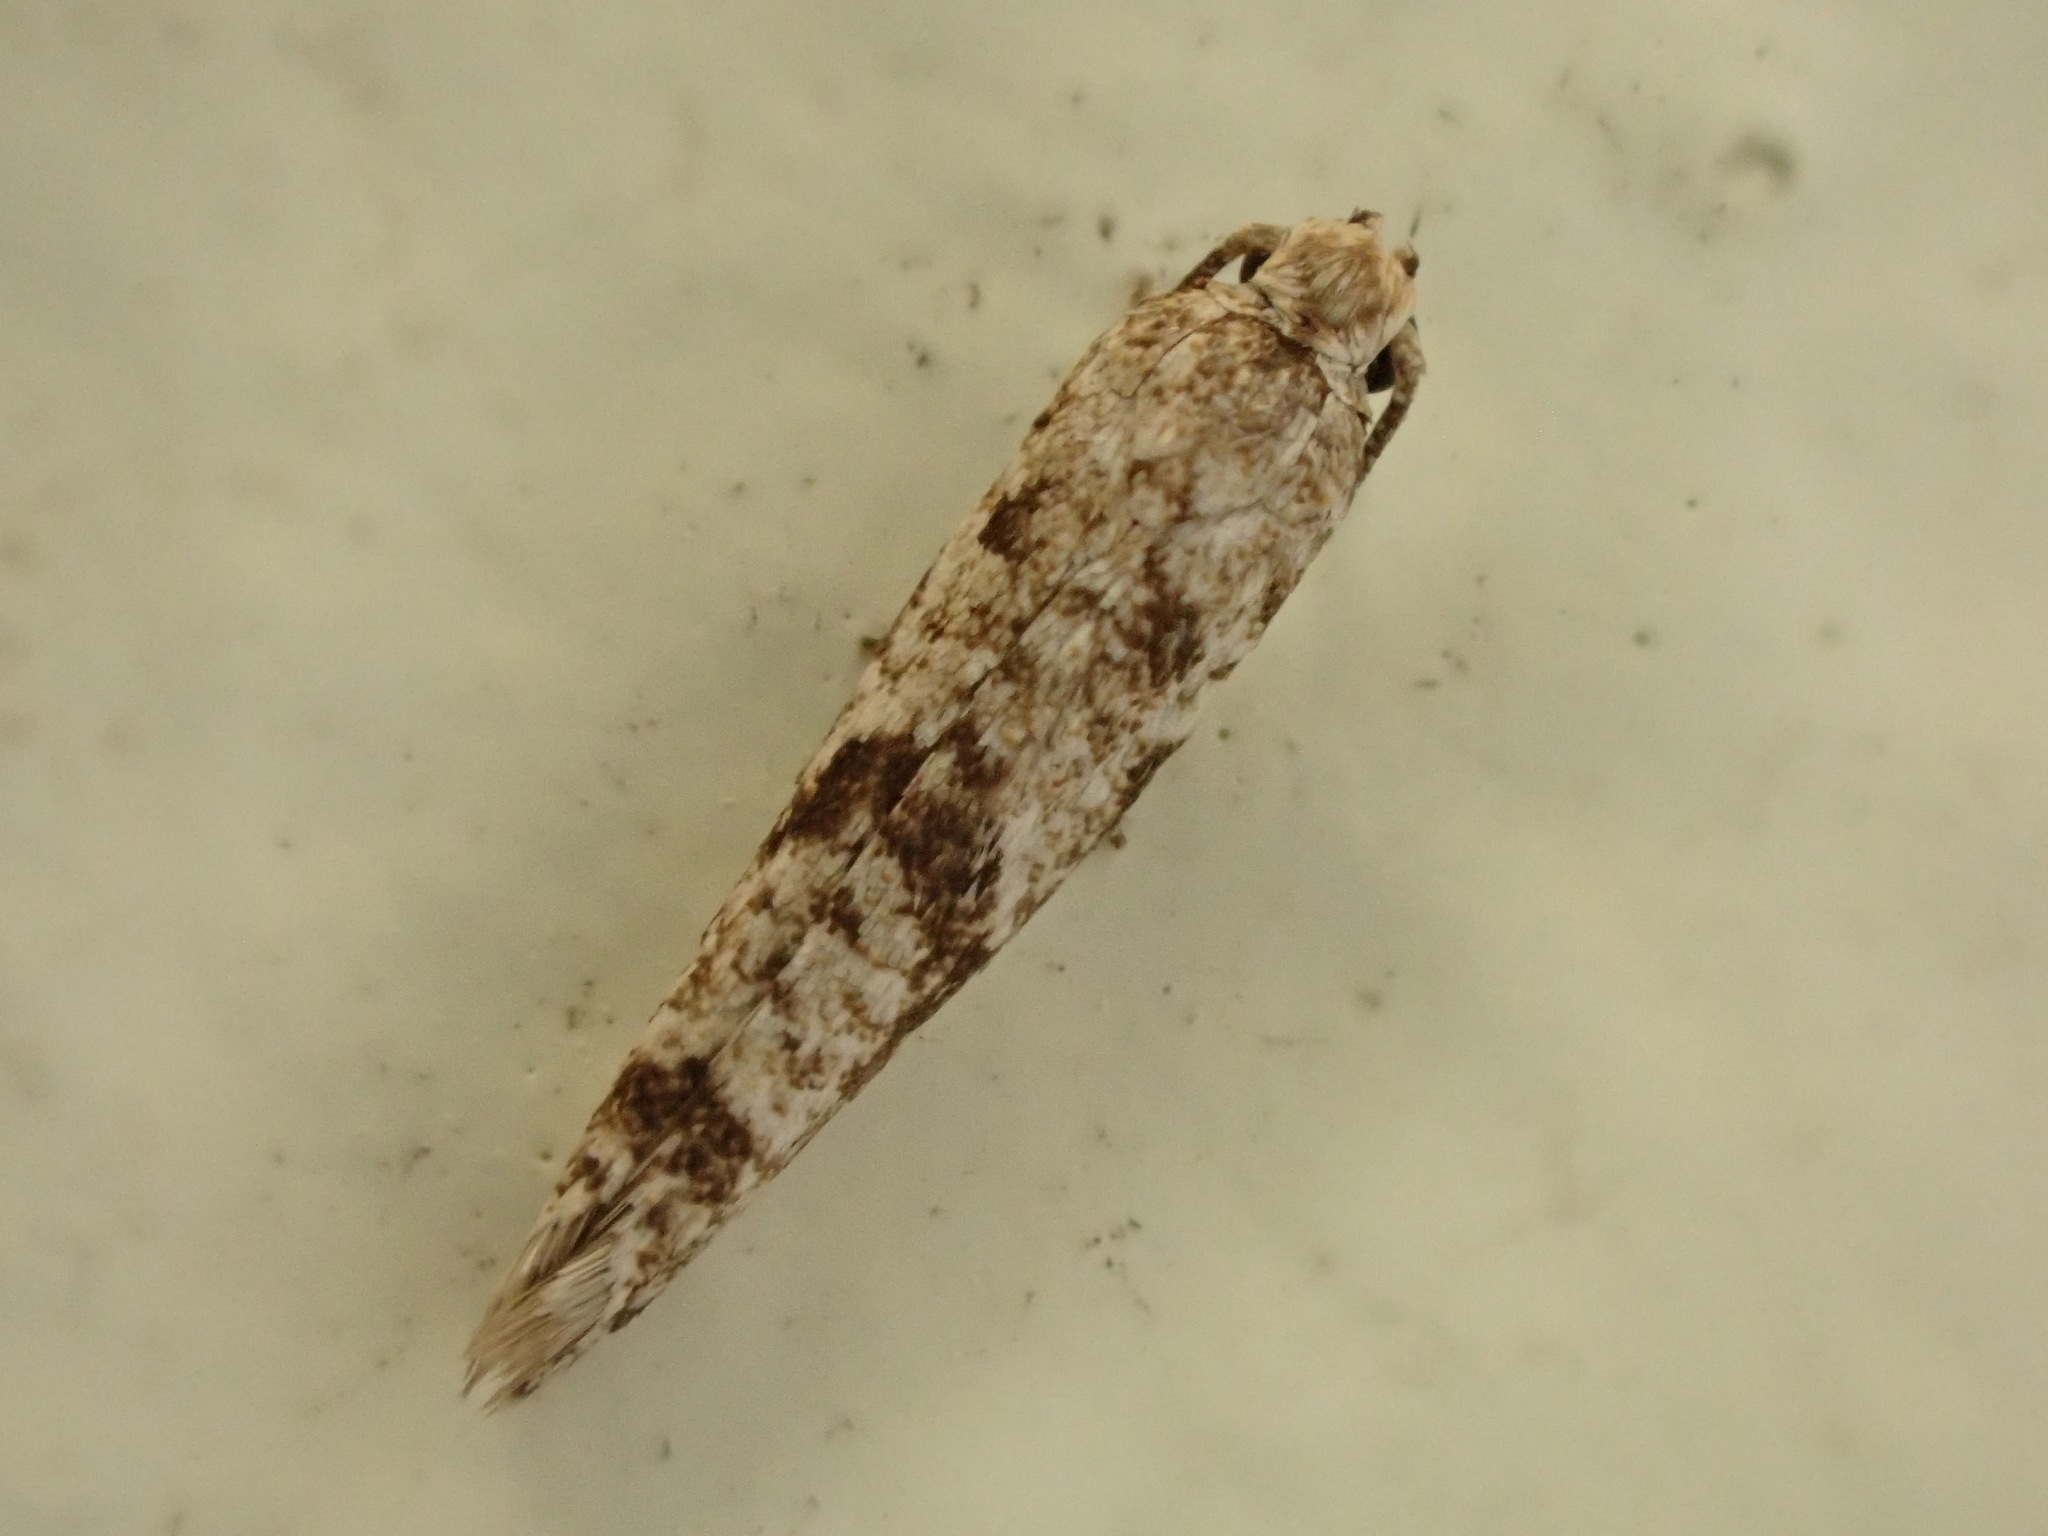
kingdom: Animalia
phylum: Arthropoda
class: Insecta
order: Lepidoptera
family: Praydidae
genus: Prays
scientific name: Prays nephelomima
